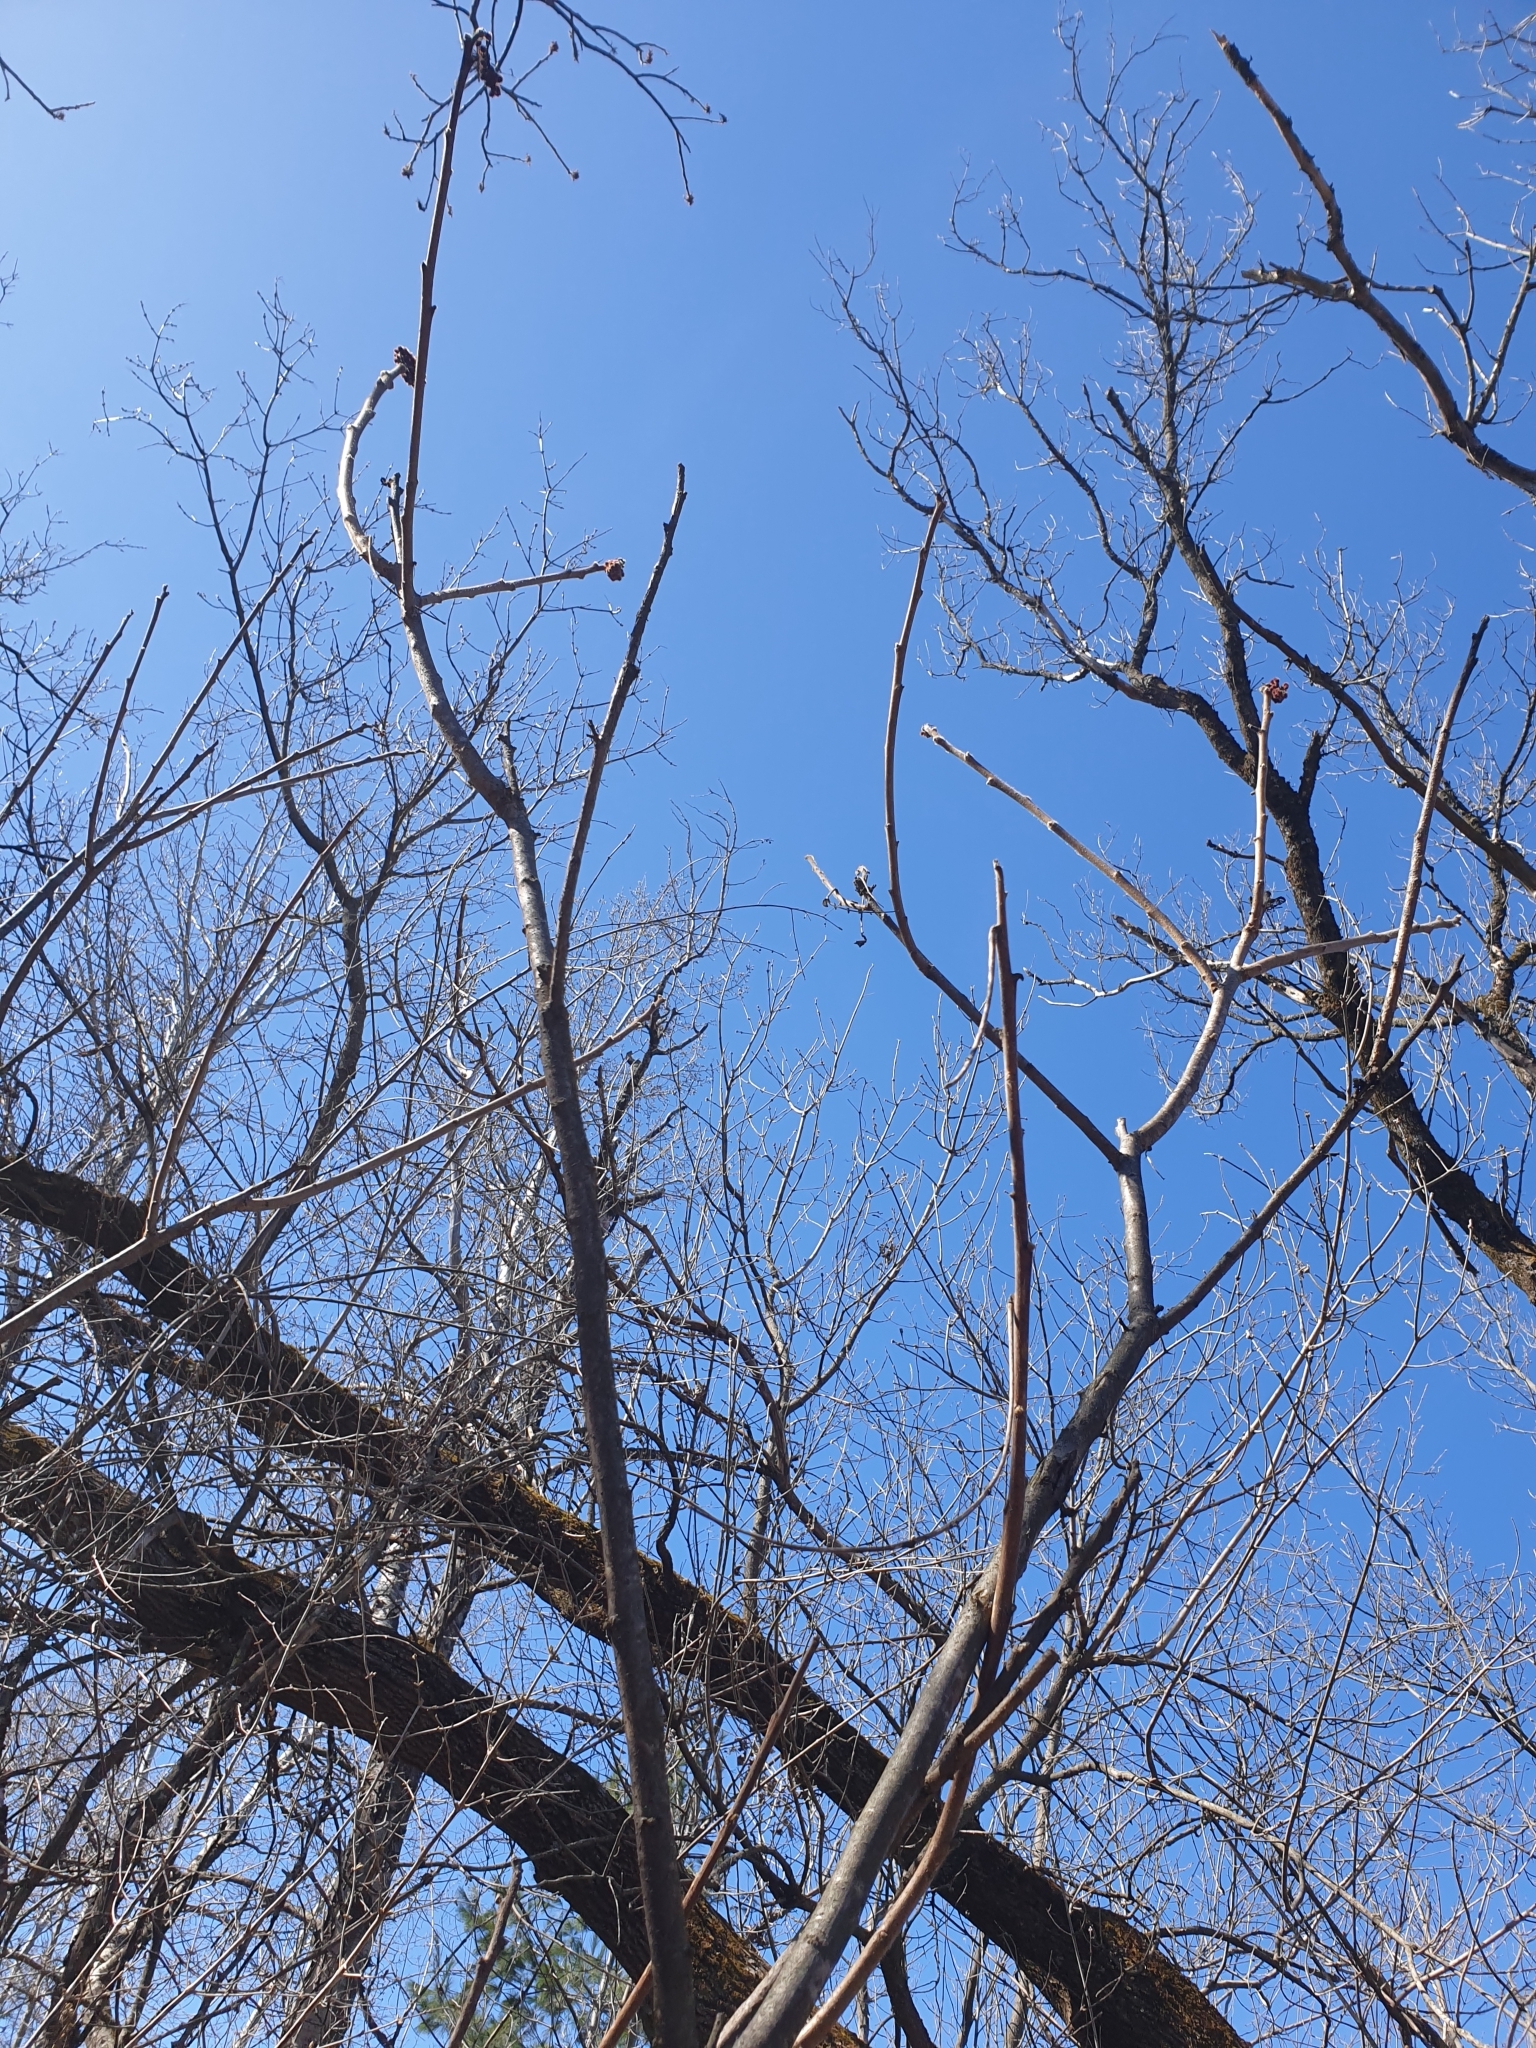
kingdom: Plantae
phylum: Tracheophyta
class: Magnoliopsida
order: Sapindales
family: Anacardiaceae
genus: Rhus
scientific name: Rhus typhina
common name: Staghorn sumac
